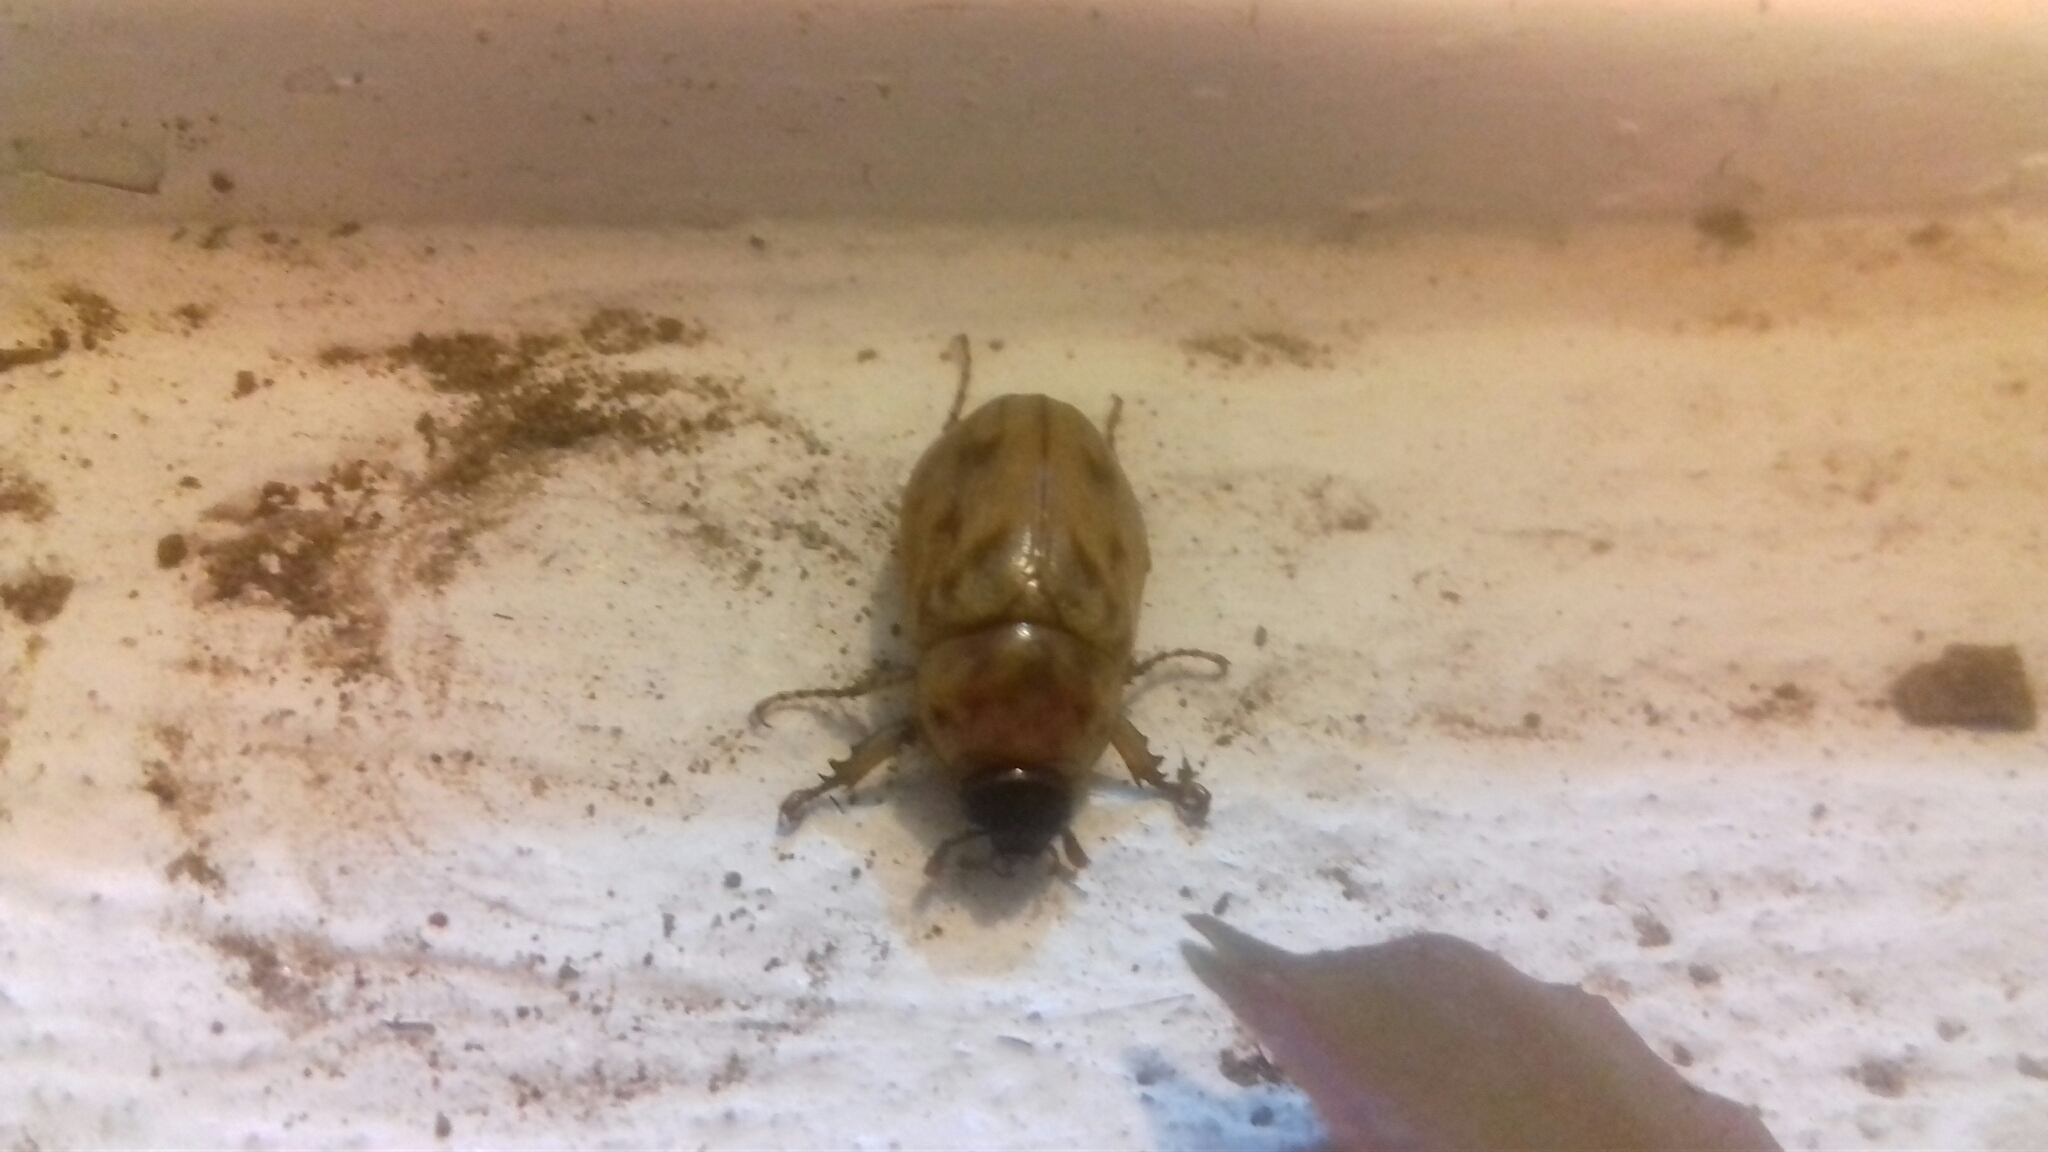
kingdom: Animalia
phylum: Arthropoda
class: Insecta
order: Coleoptera
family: Scarabaeidae
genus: Cyclocephala
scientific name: Cyclocephala lunulata
